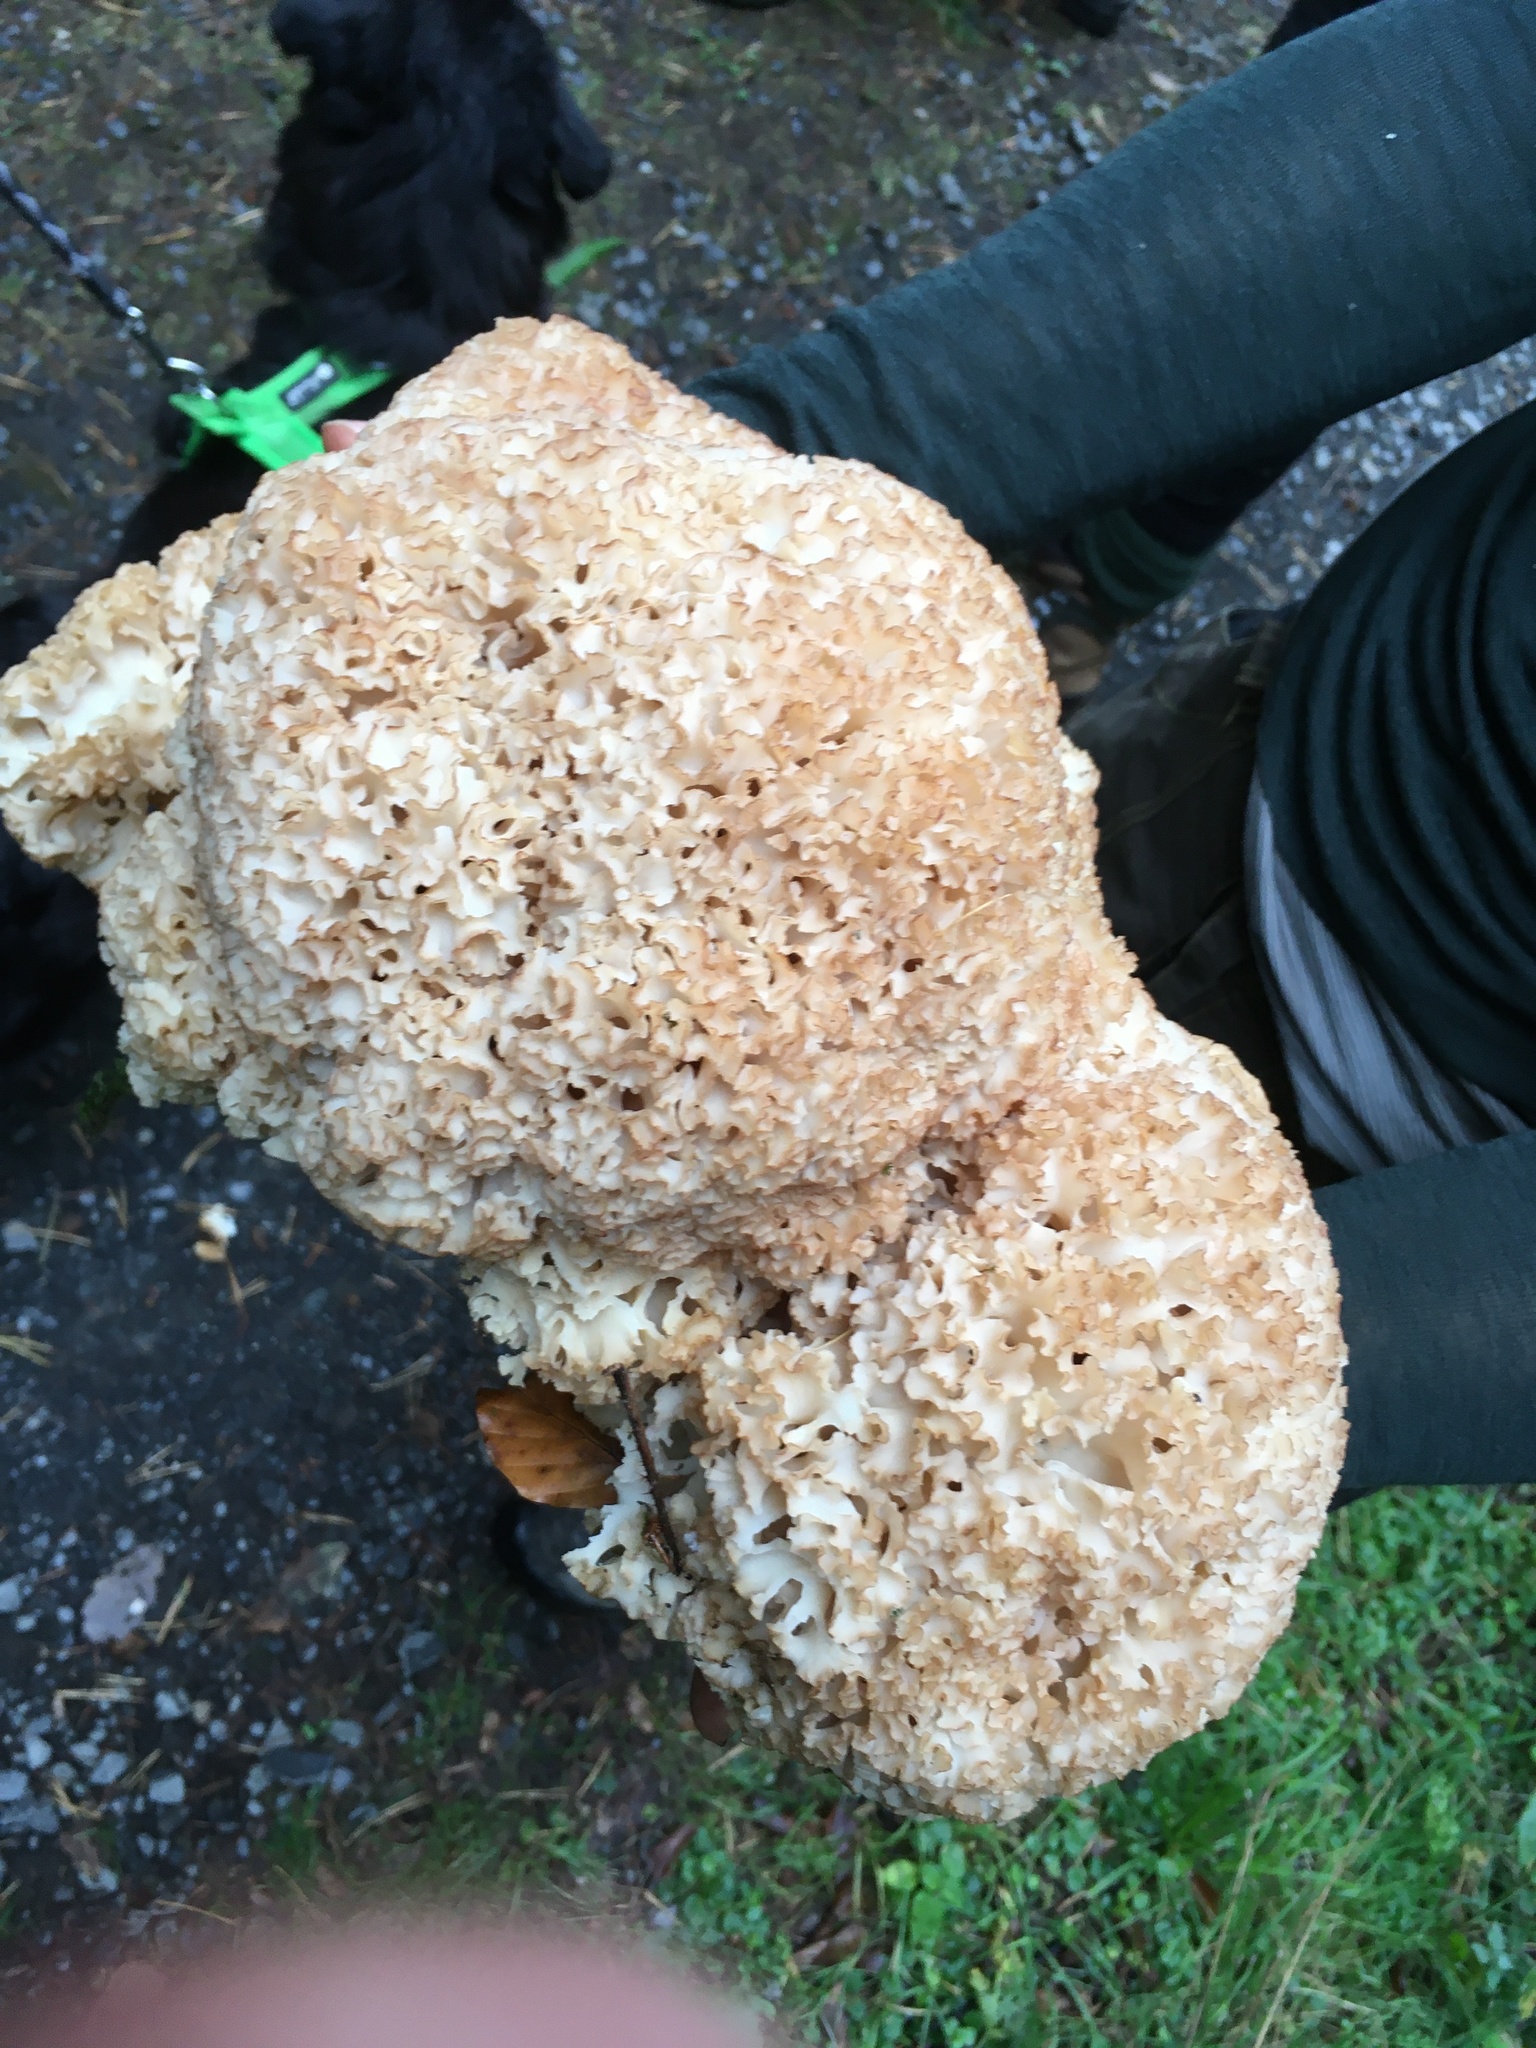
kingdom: Fungi
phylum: Basidiomycota
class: Agaricomycetes
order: Polyporales
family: Sparassidaceae
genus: Sparassis
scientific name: Sparassis crispa
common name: Brain fungus
